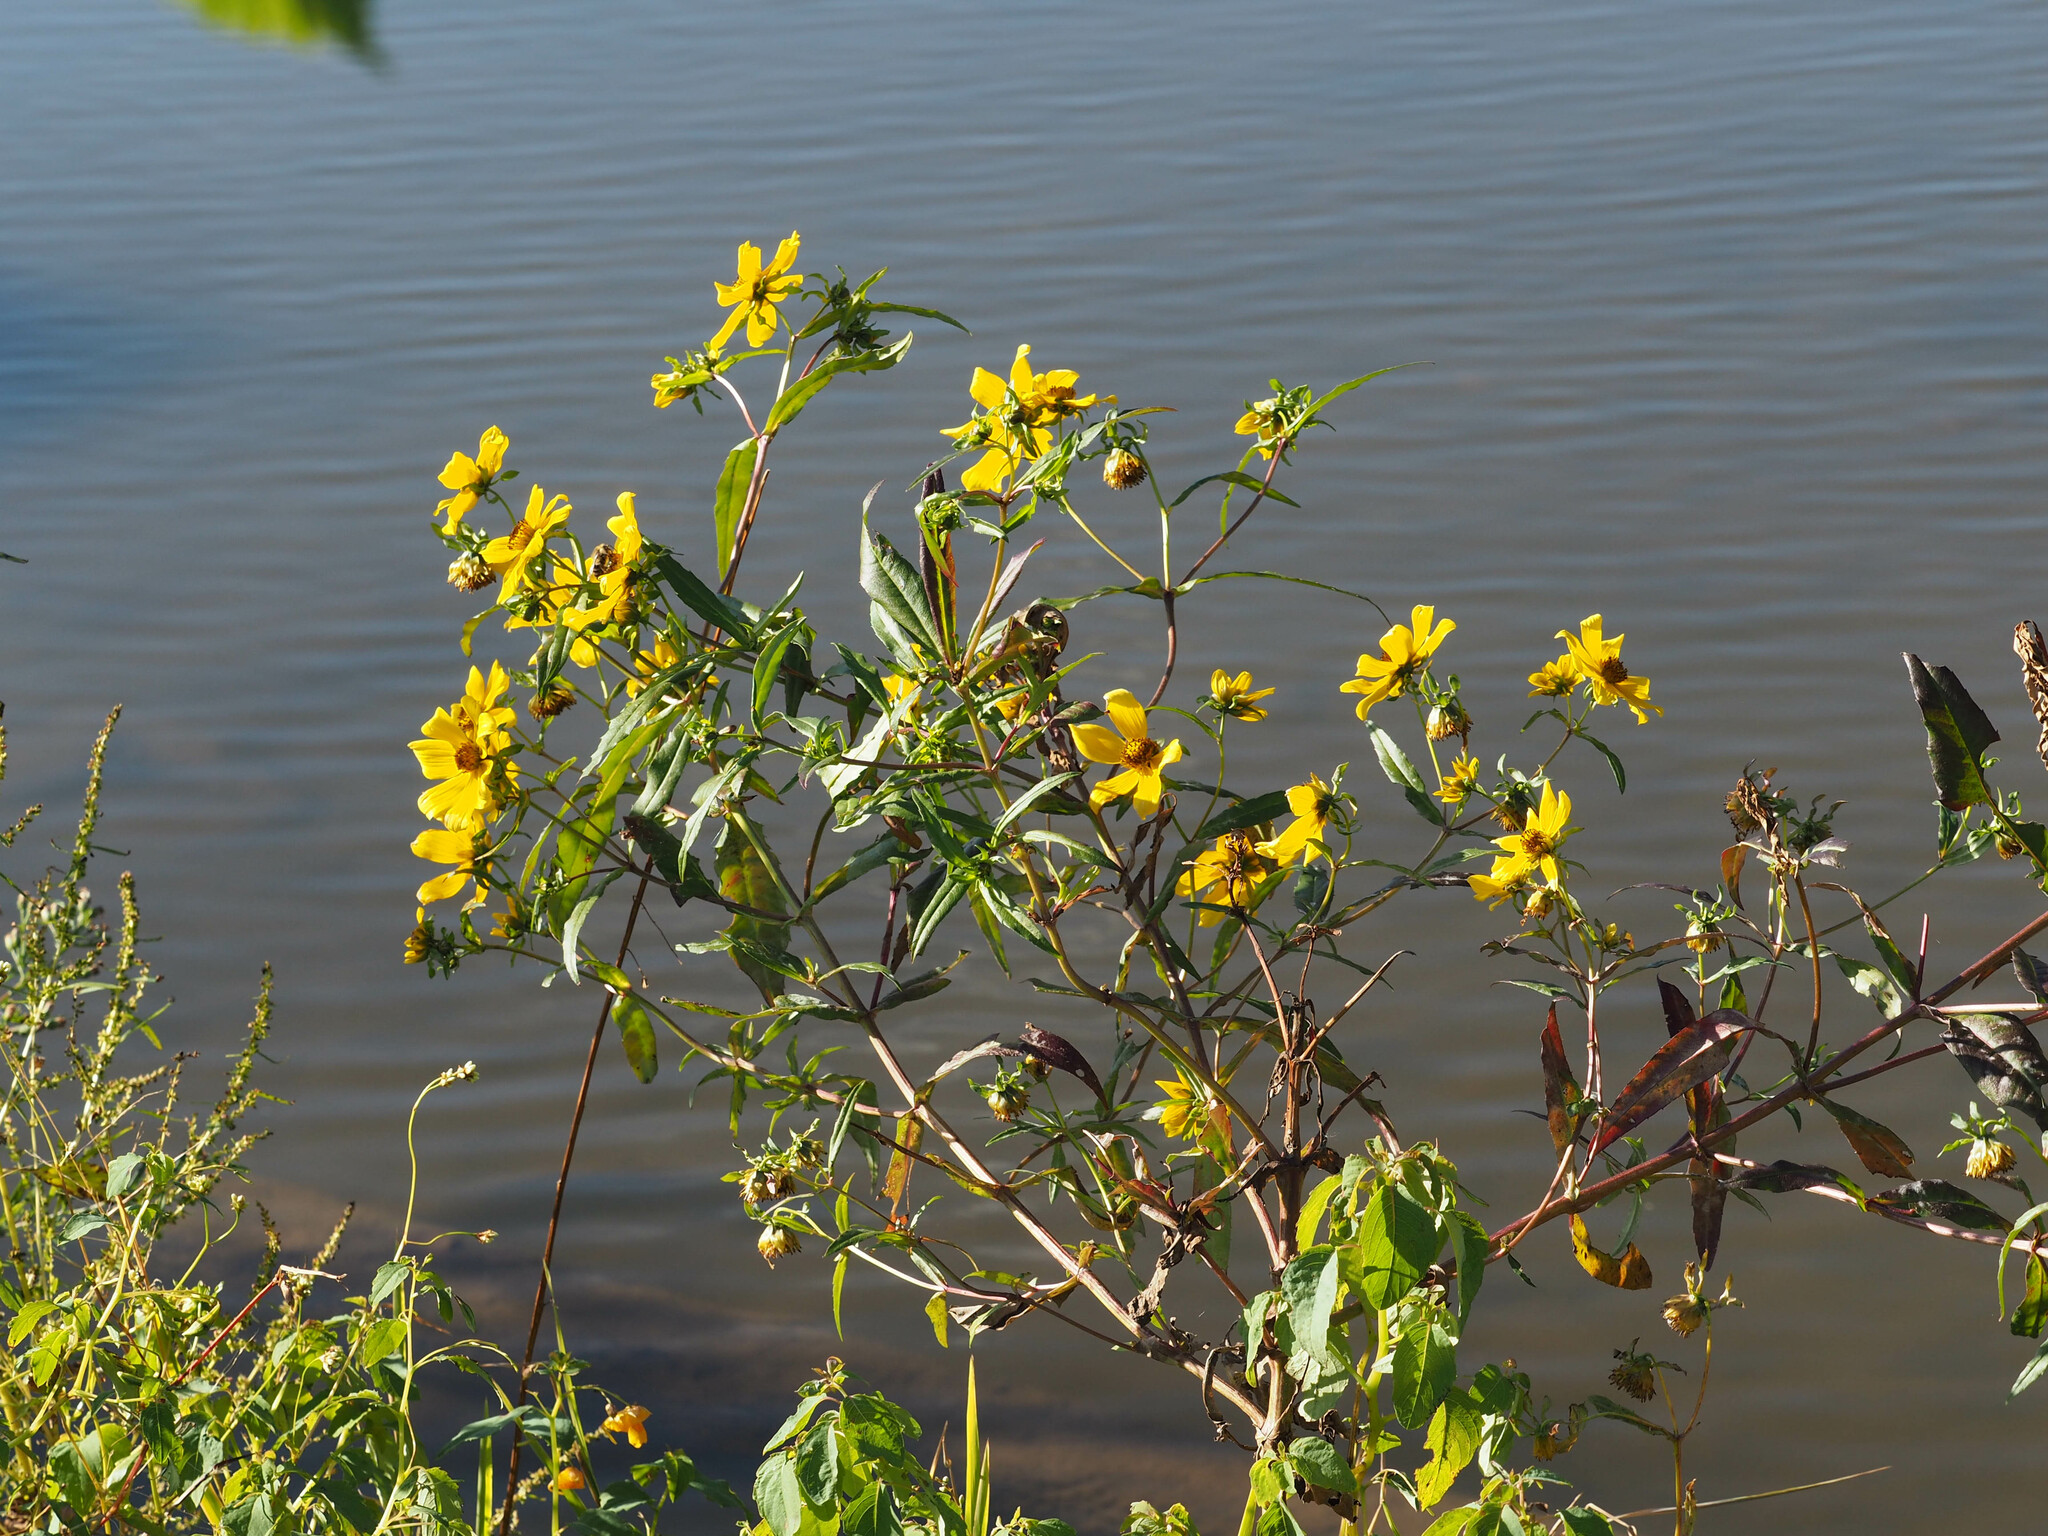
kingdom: Plantae
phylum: Tracheophyta
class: Magnoliopsida
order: Asterales
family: Asteraceae
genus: Bidens
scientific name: Bidens laevis
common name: Larger bur-marigold
